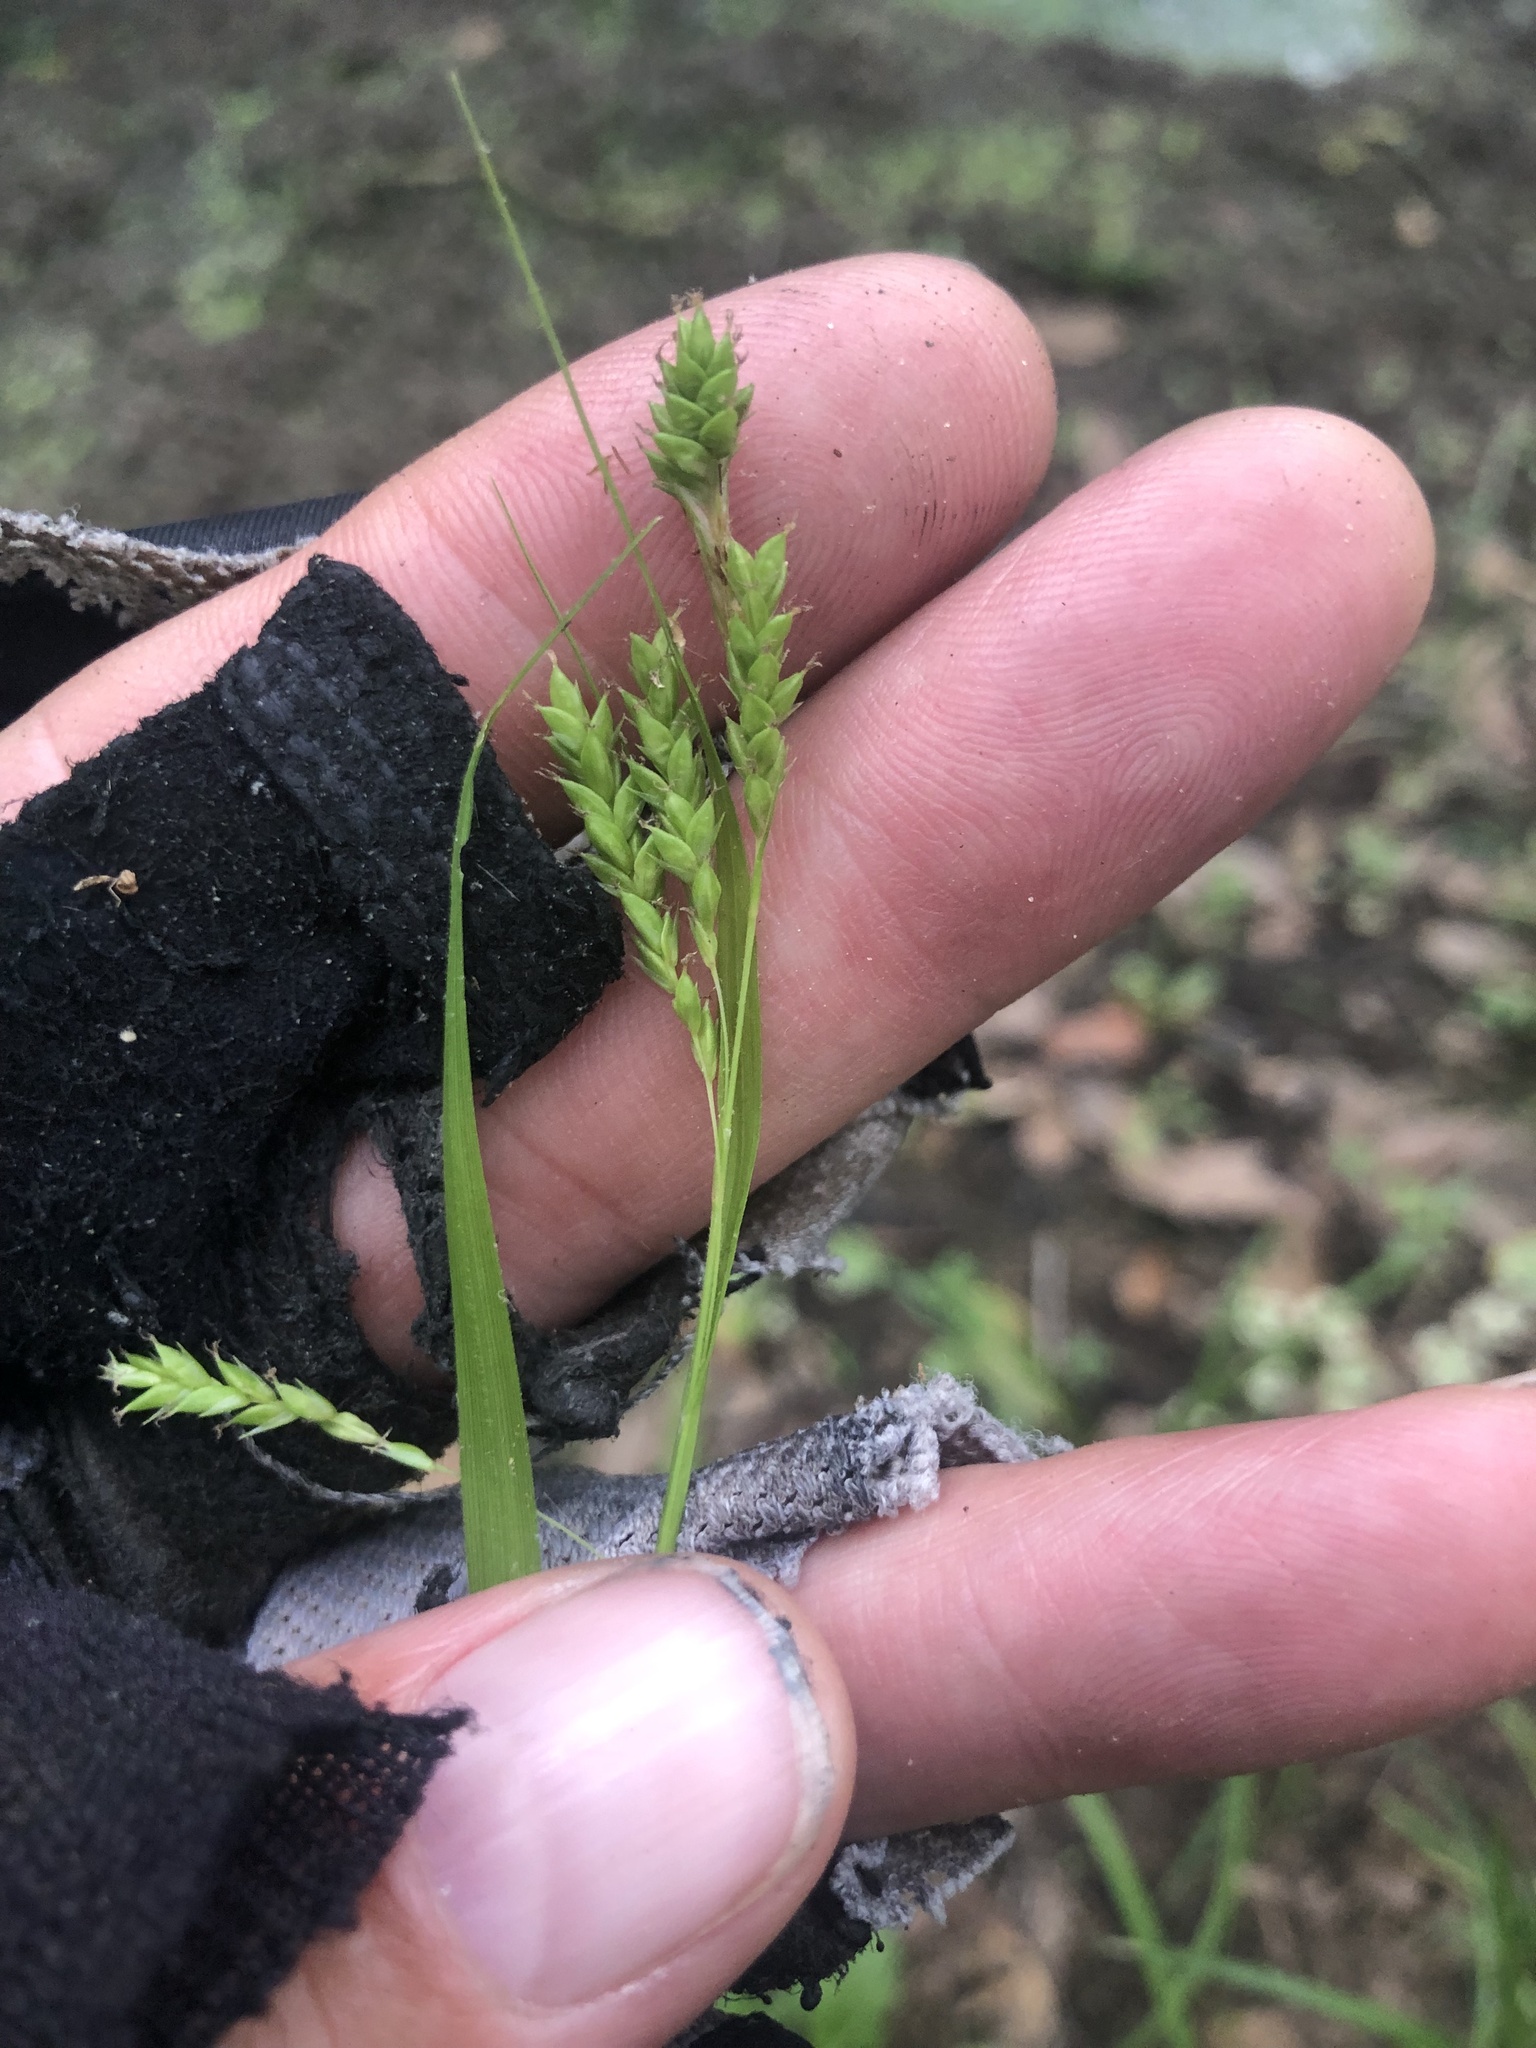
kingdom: Plantae
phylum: Tracheophyta
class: Liliopsida
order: Poales
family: Cyperaceae
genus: Carex
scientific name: Carex oxylepis
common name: Sharpscale sedge
